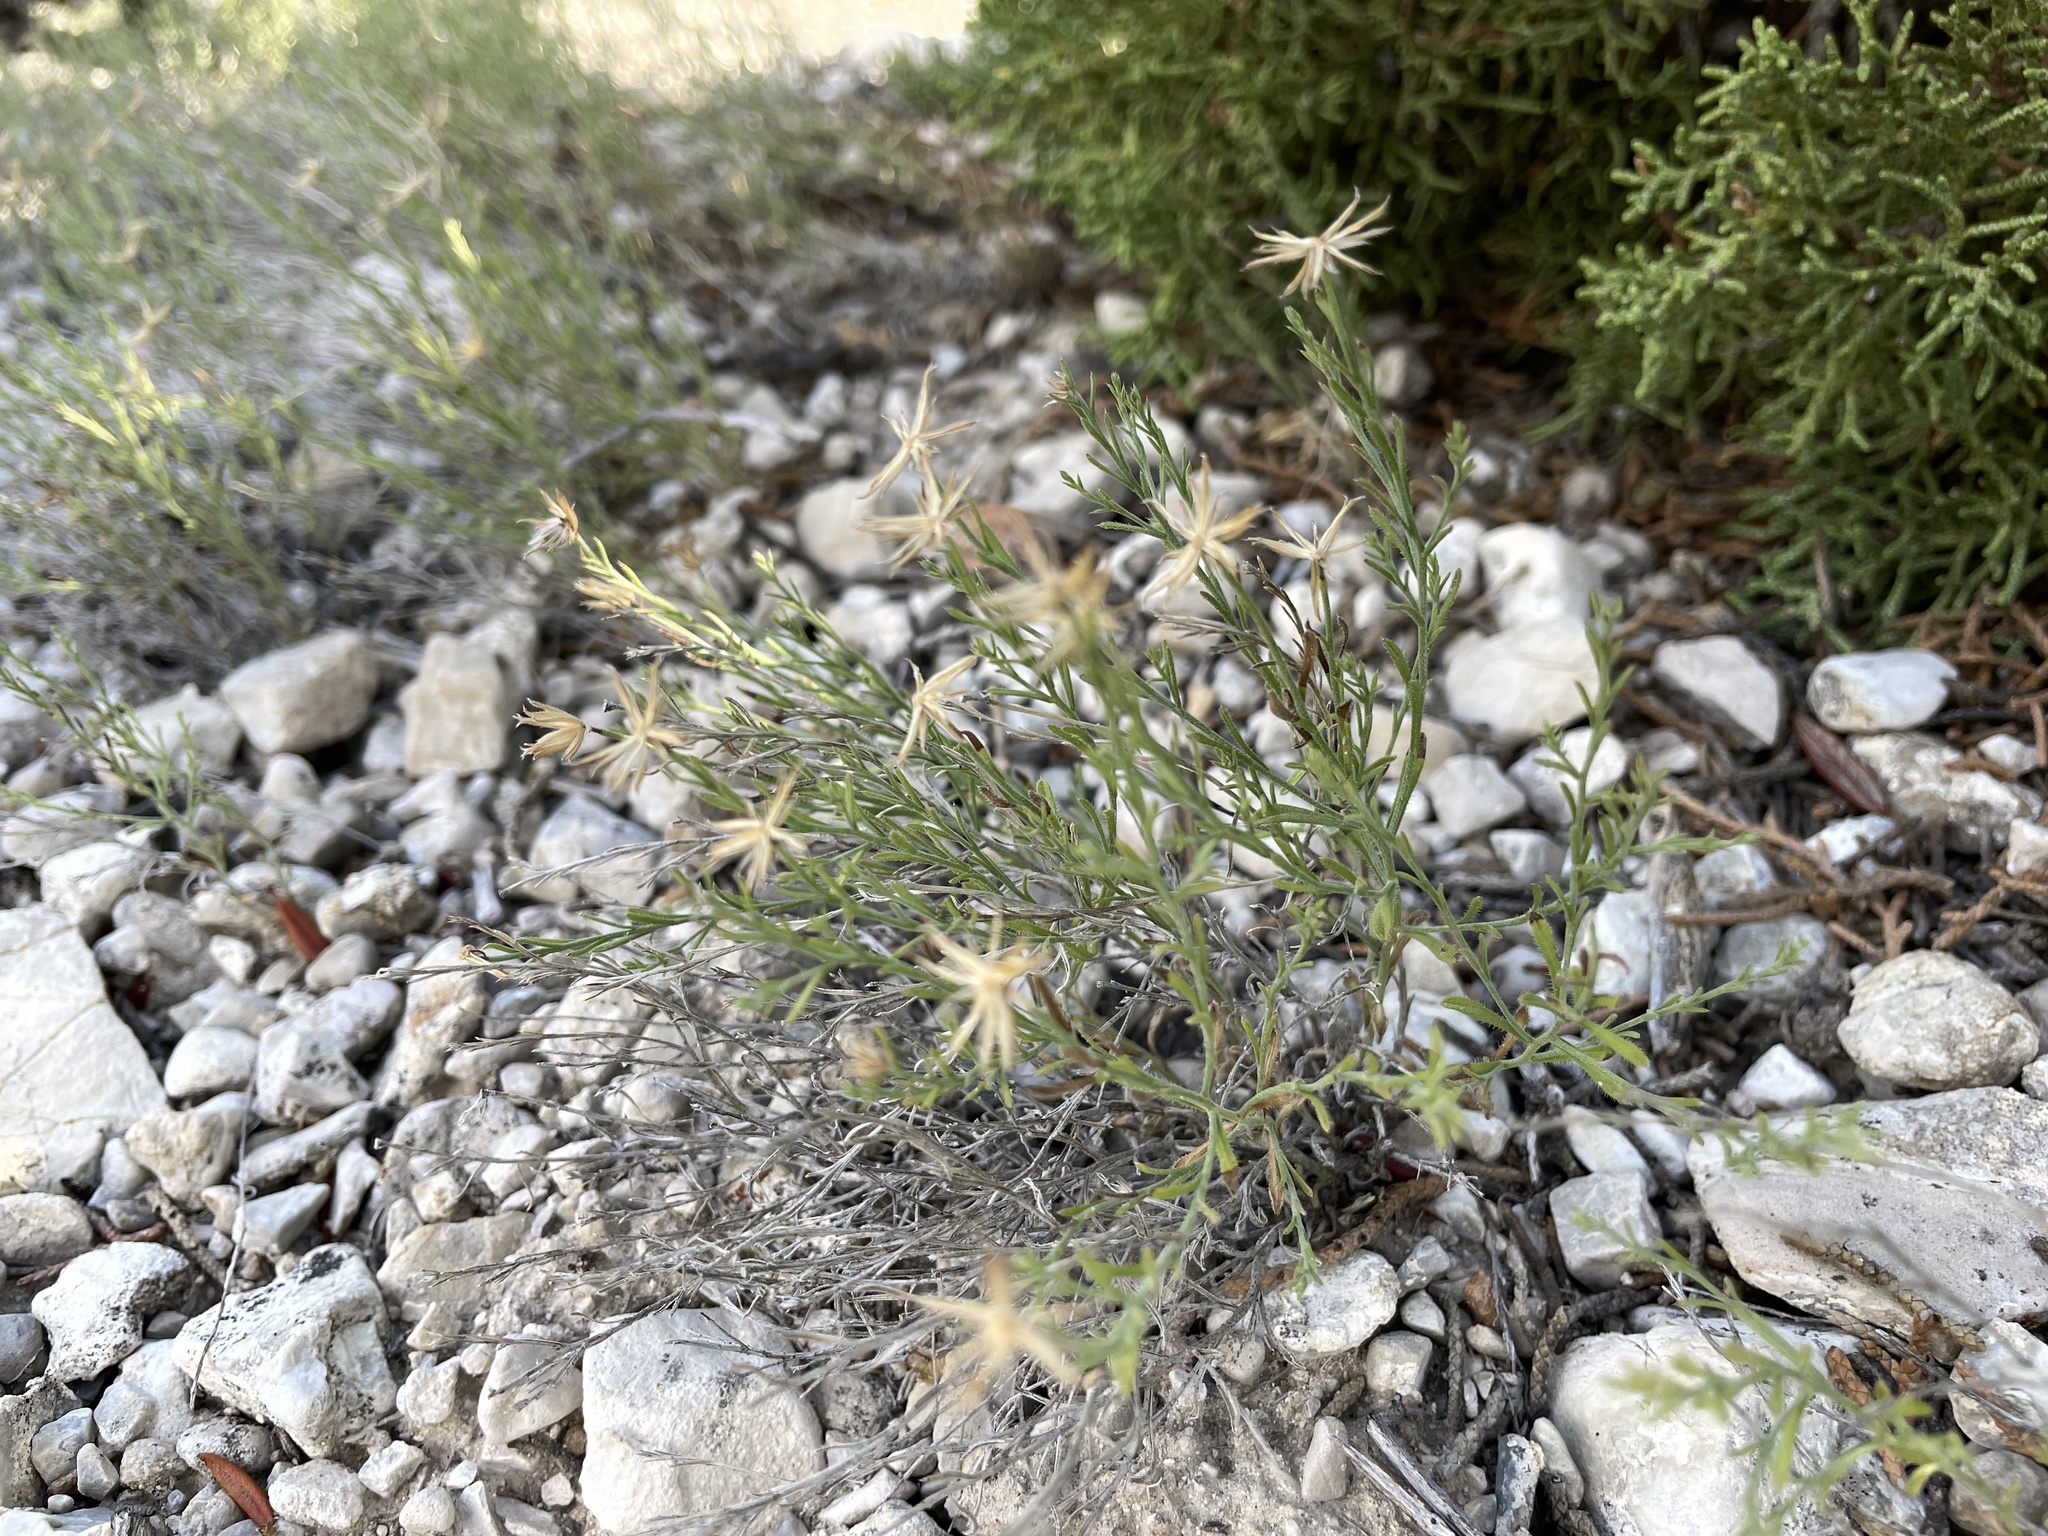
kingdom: Plantae
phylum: Tracheophyta
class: Magnoliopsida
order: Asterales
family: Asteraceae
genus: Chaetopappa
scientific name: Chaetopappa ericoides
